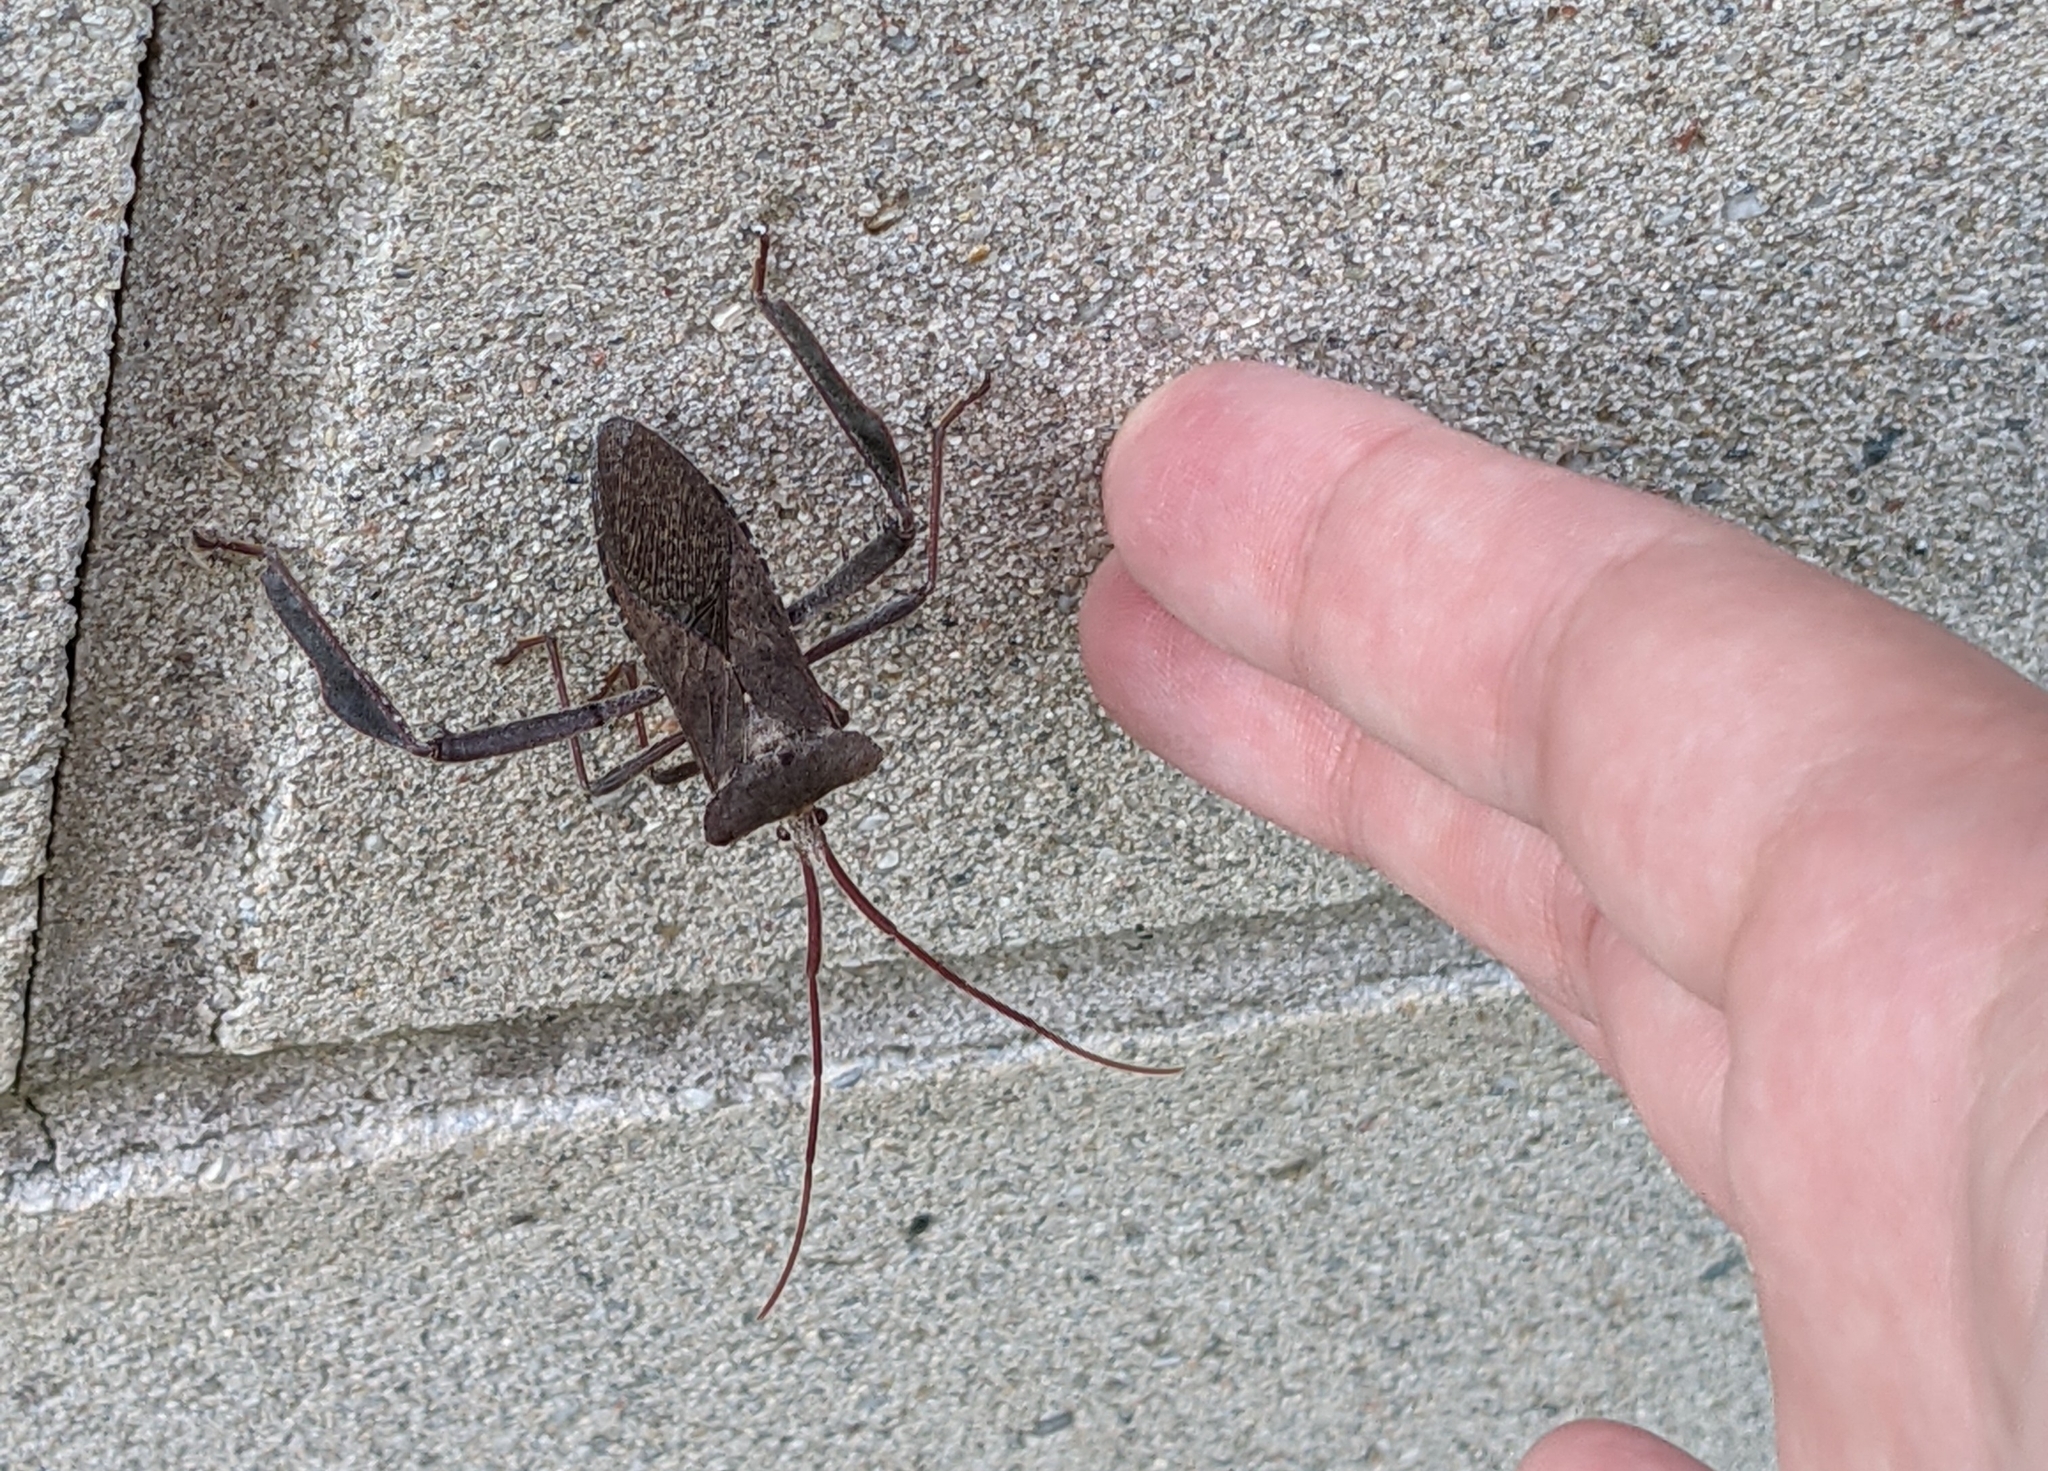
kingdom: Animalia
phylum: Arthropoda
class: Insecta
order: Hemiptera
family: Coreidae
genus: Acanthocephala
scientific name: Acanthocephala declivis
